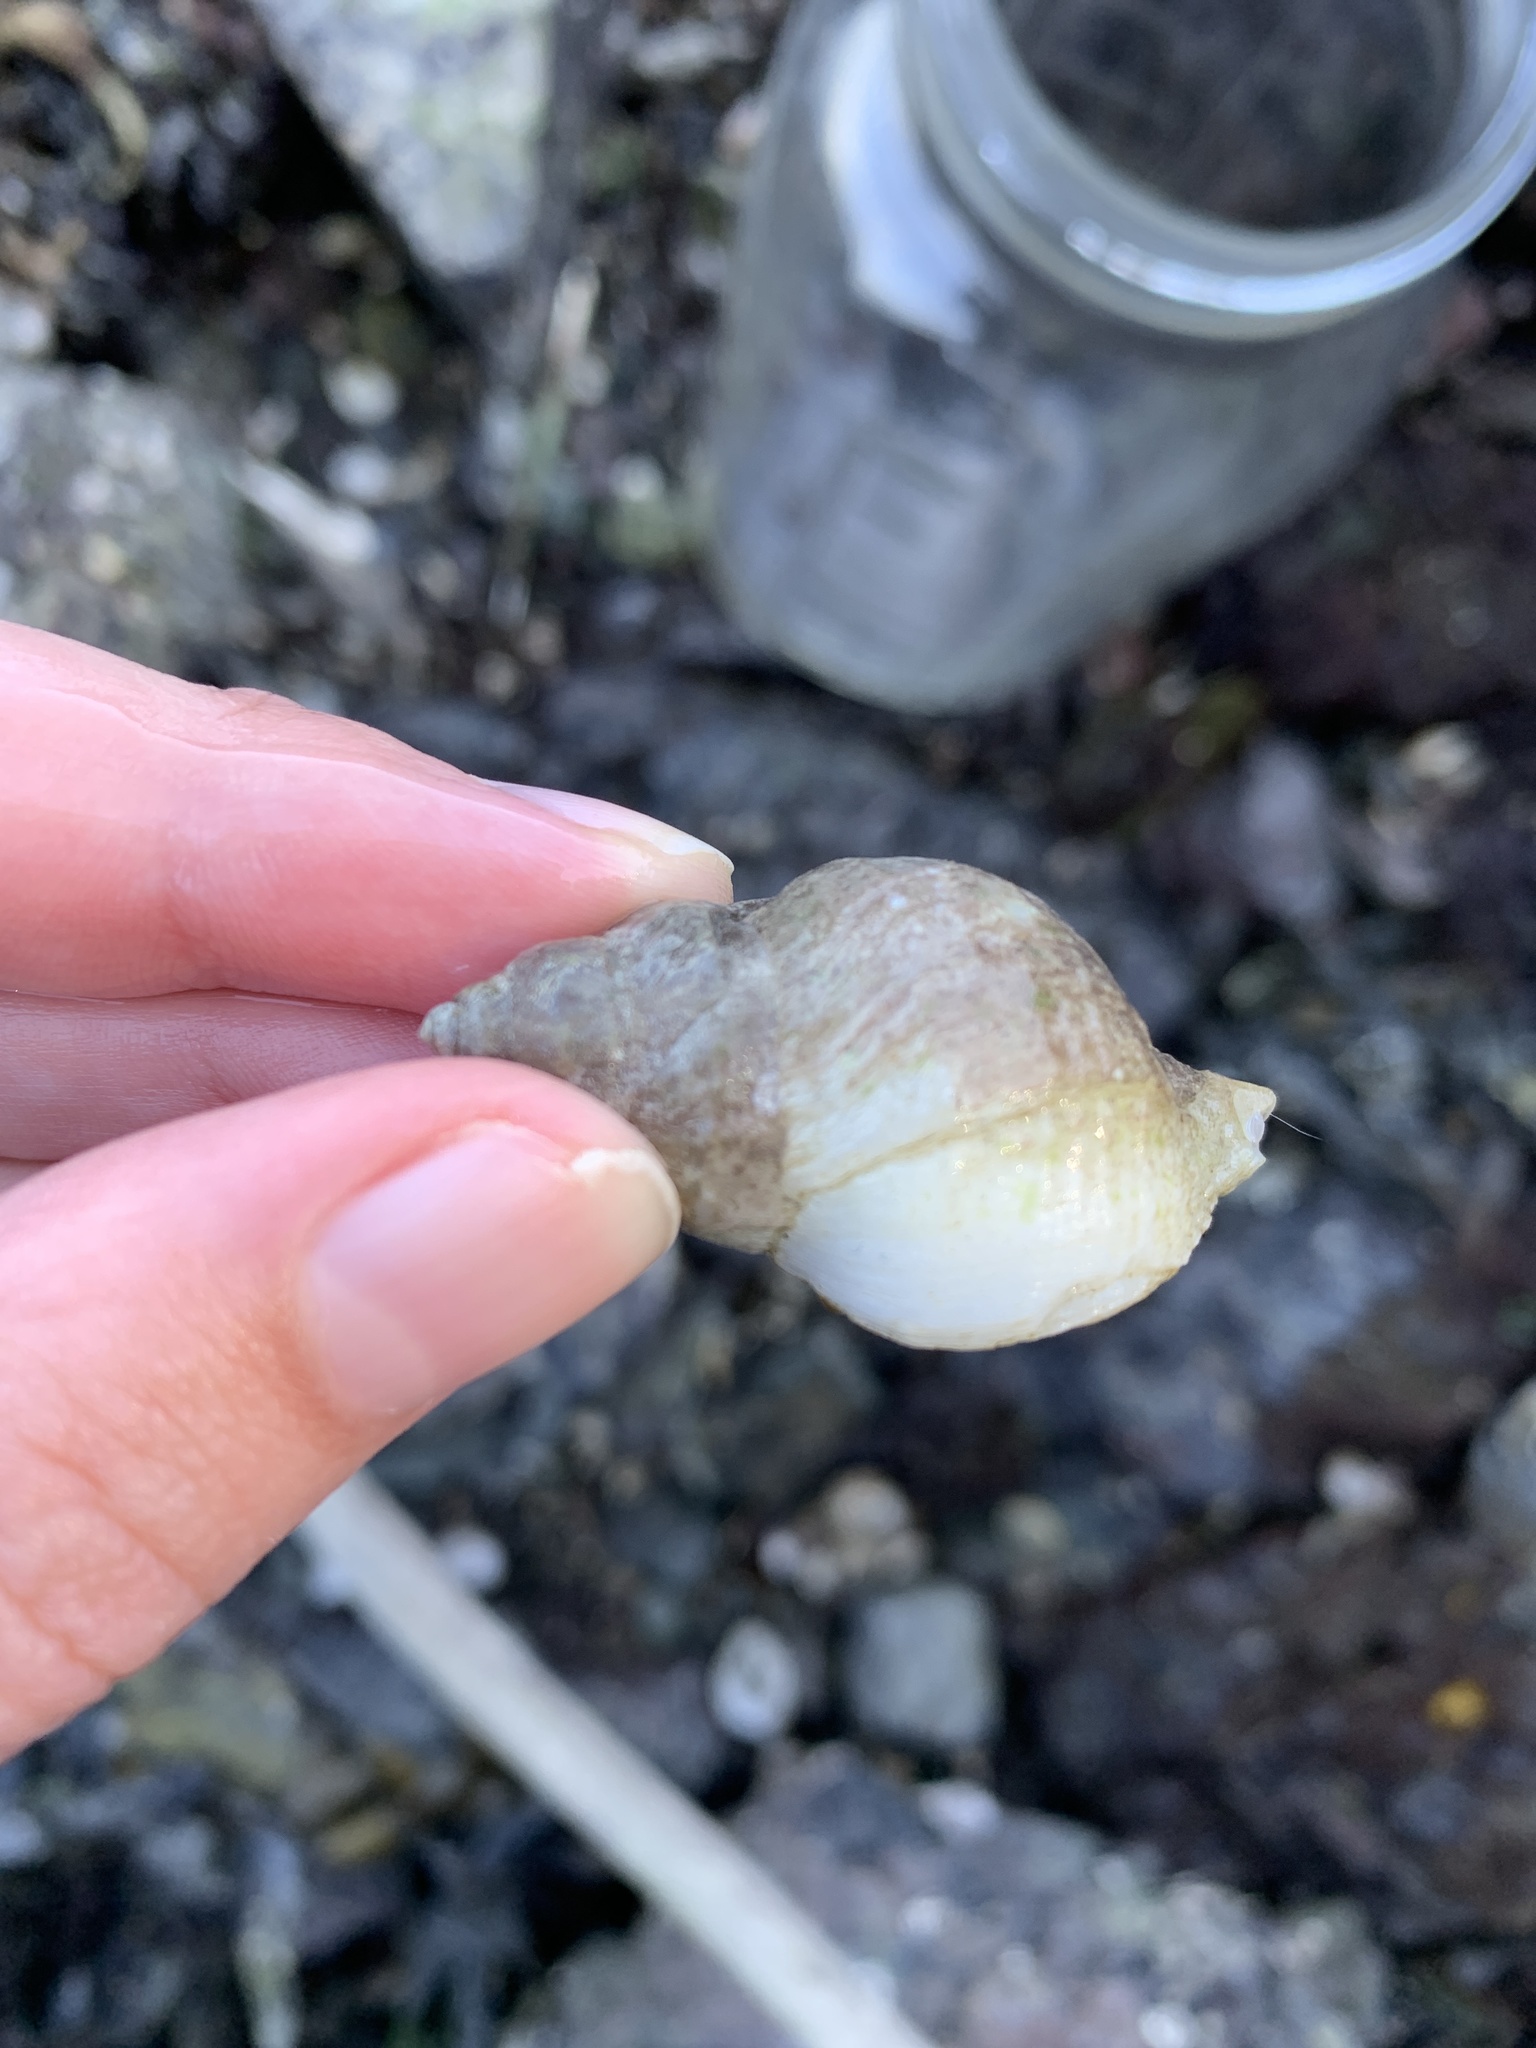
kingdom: Animalia
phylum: Mollusca
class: Gastropoda
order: Neogastropoda
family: Muricidae
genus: Nucella
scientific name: Nucella lamellosa
